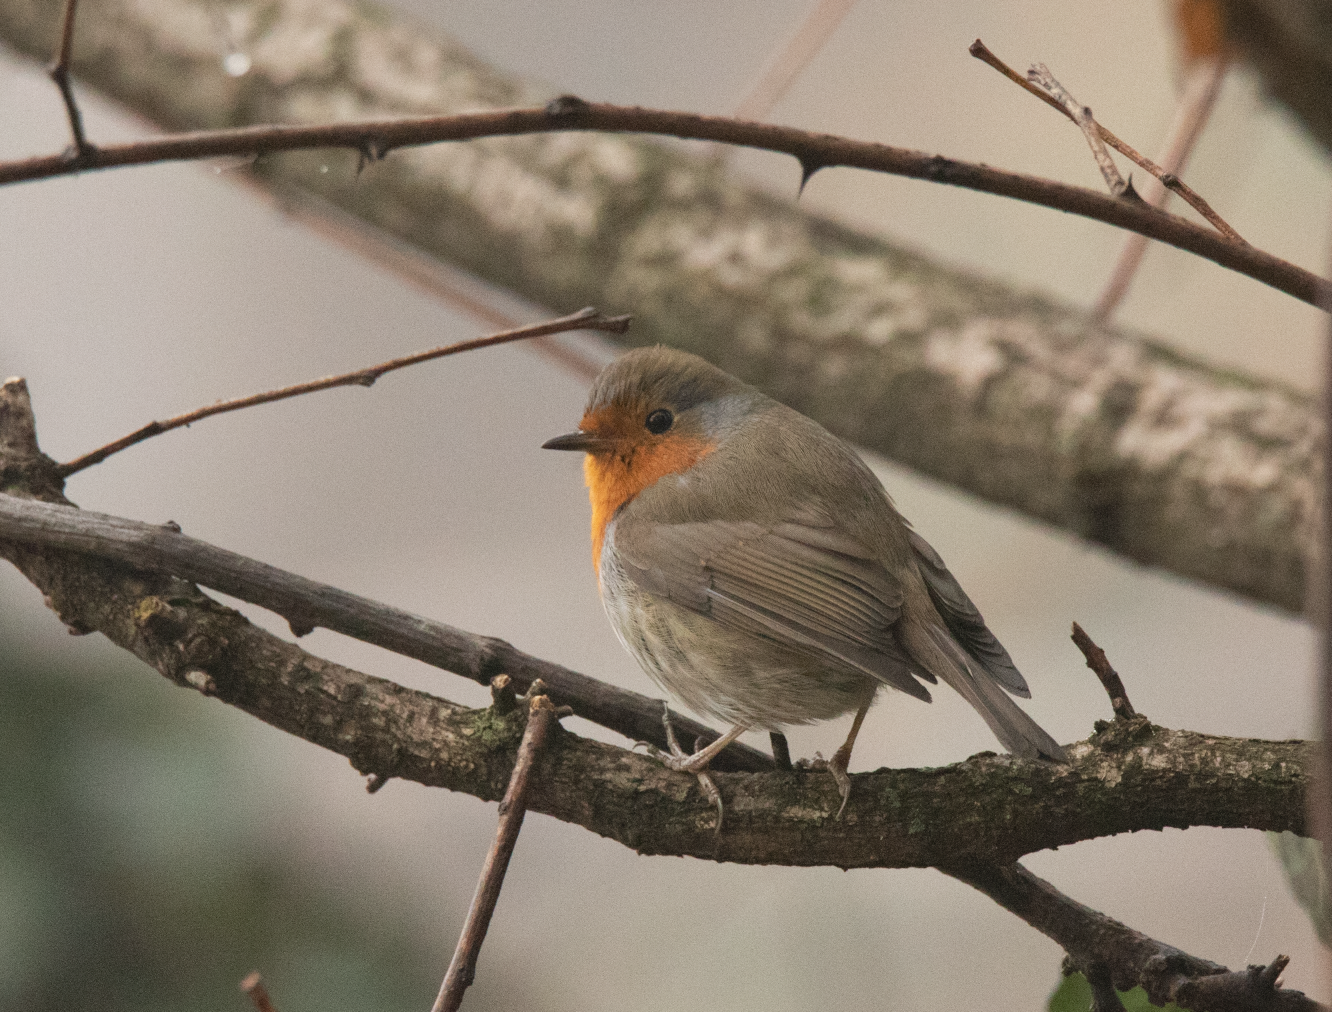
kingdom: Animalia
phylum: Chordata
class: Aves
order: Passeriformes
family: Muscicapidae
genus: Erithacus
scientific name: Erithacus rubecula
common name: European robin
